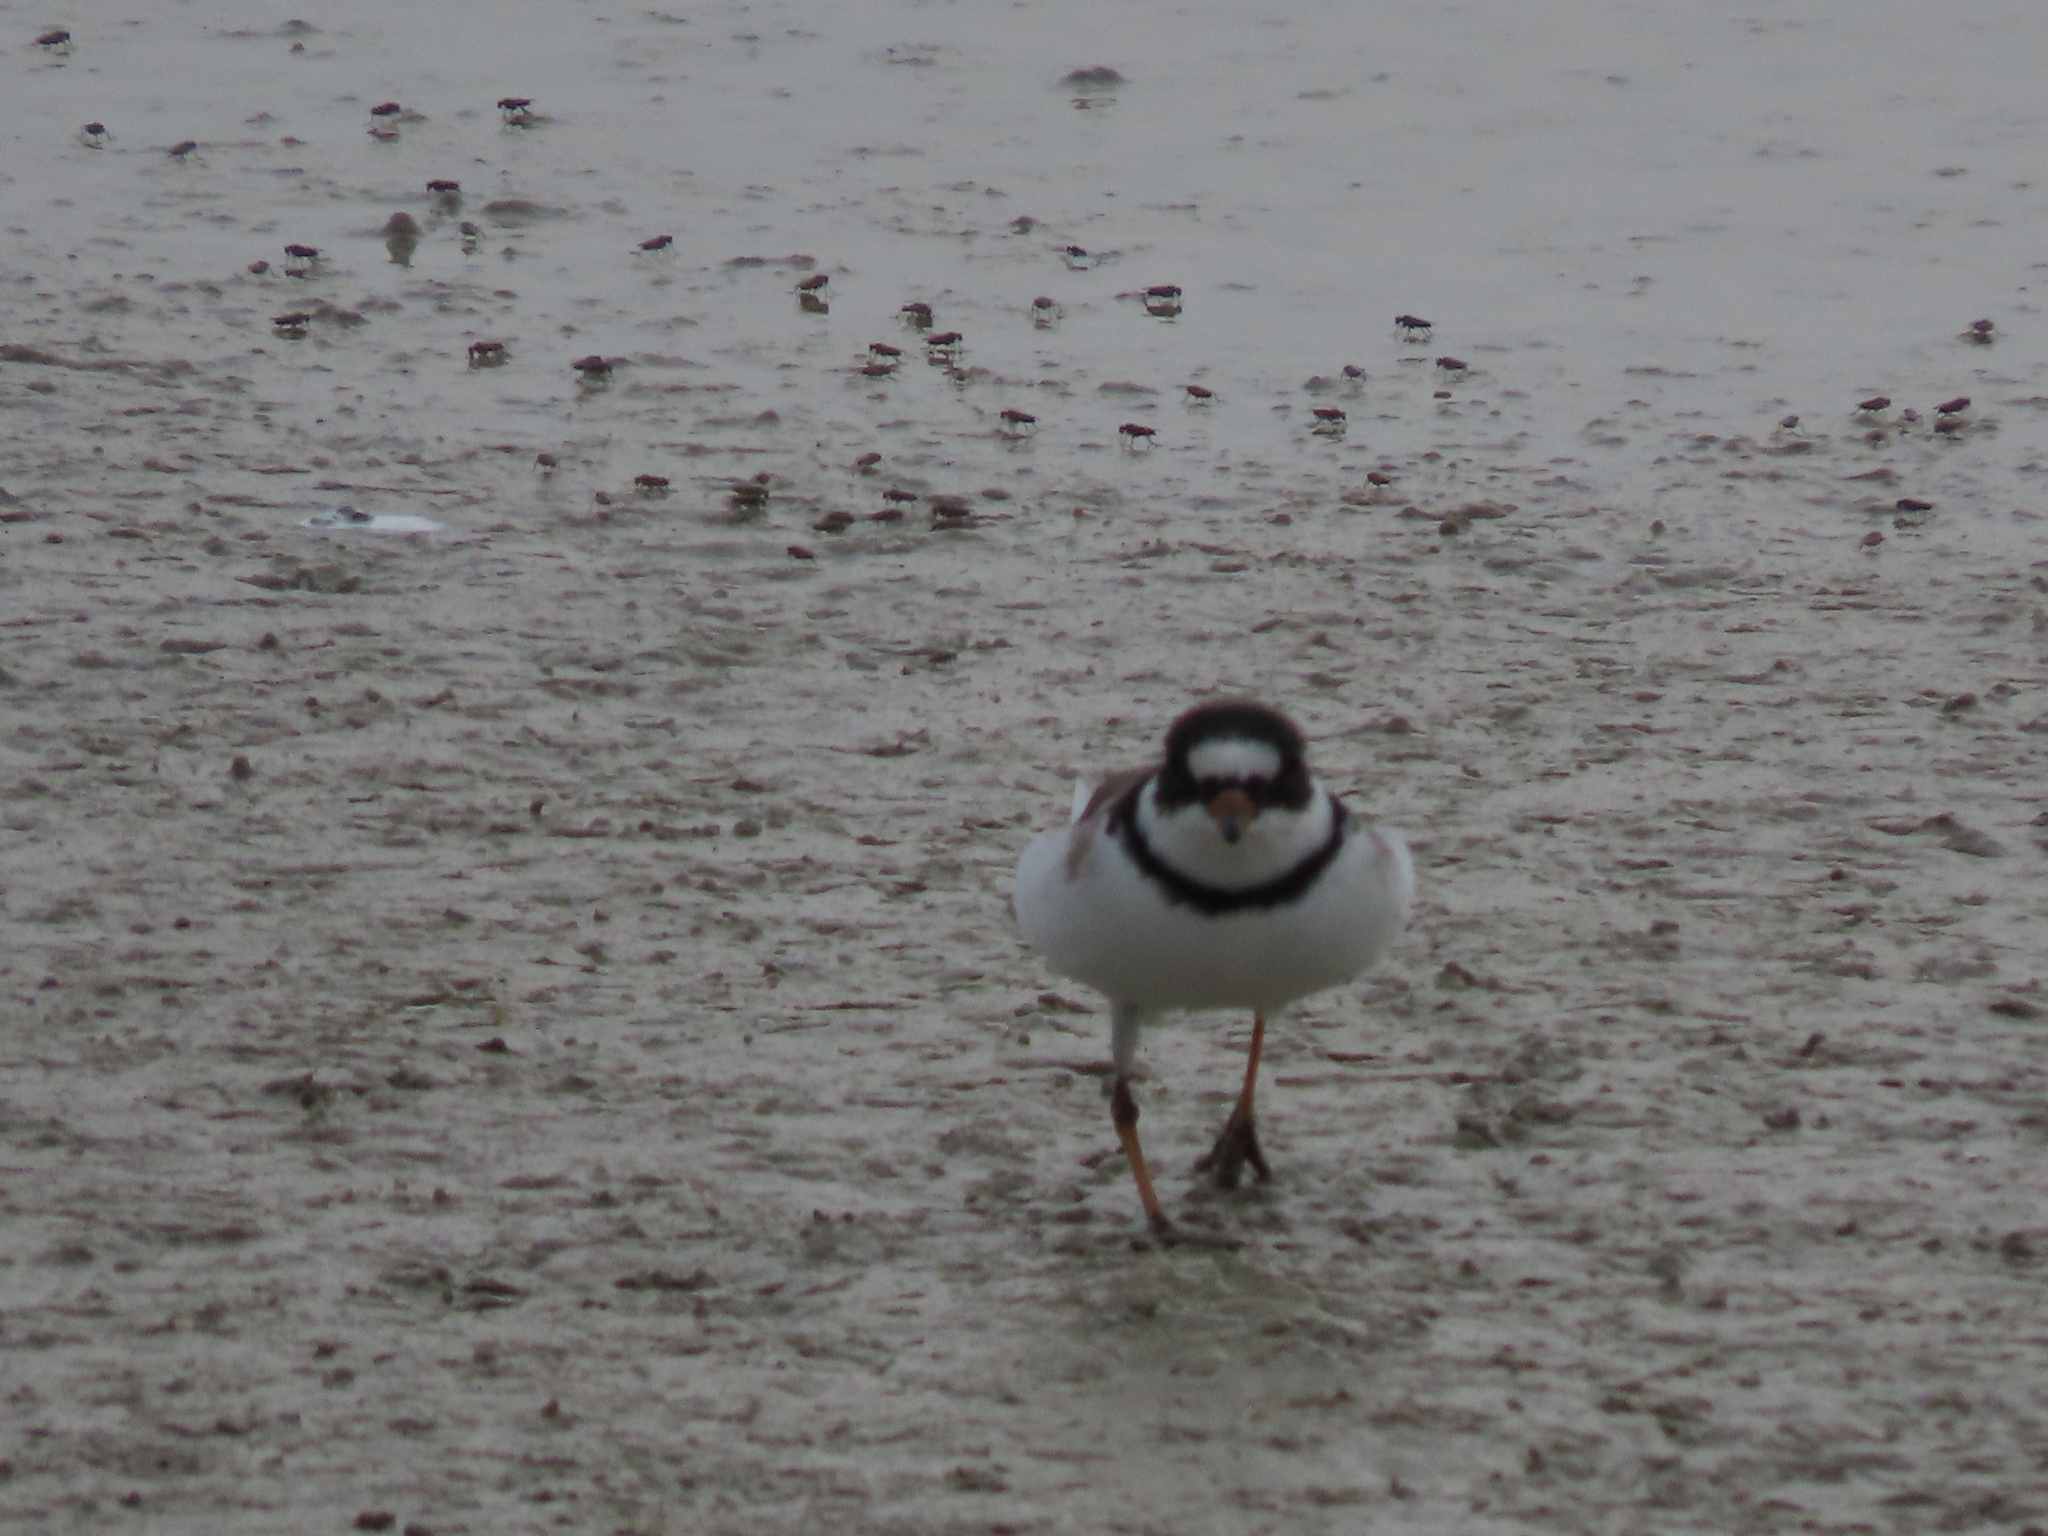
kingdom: Animalia
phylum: Chordata
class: Aves
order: Charadriiformes
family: Charadriidae
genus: Charadrius
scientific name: Charadrius semipalmatus
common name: Semipalmated plover
